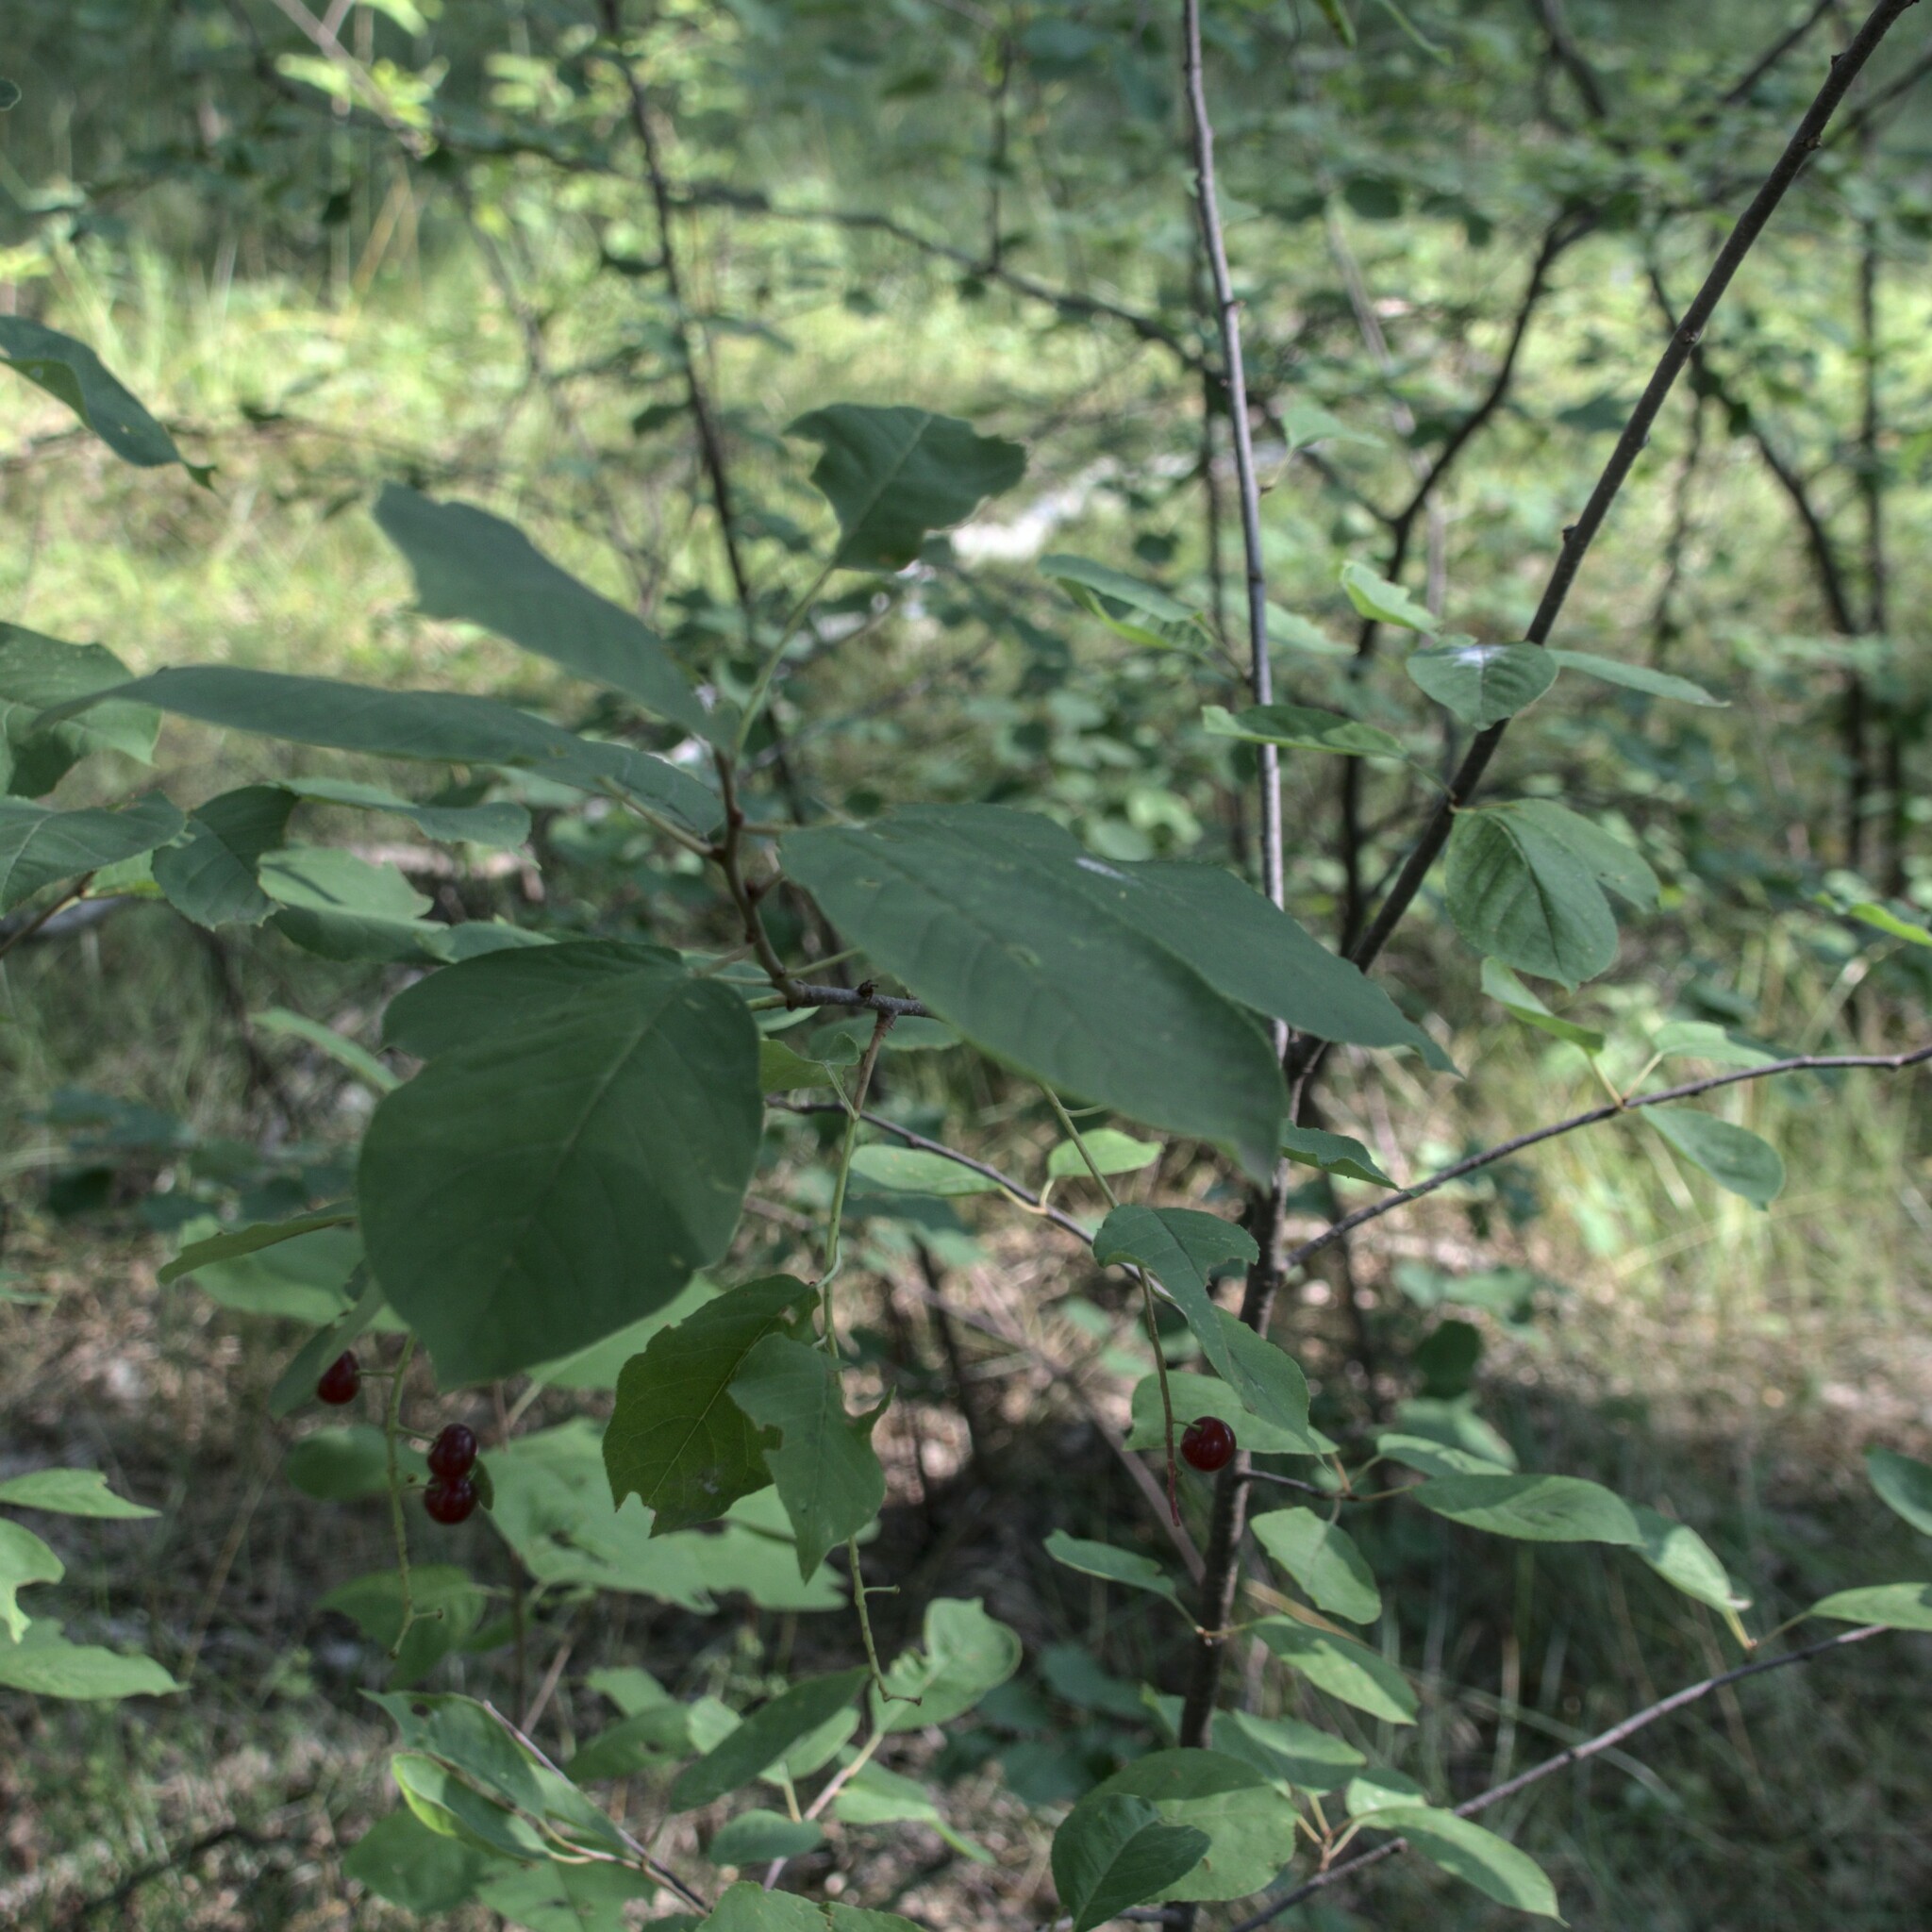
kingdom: Plantae
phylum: Tracheophyta
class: Magnoliopsida
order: Rosales
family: Rosaceae
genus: Prunus
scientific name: Prunus virginiana
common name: Chokecherry
